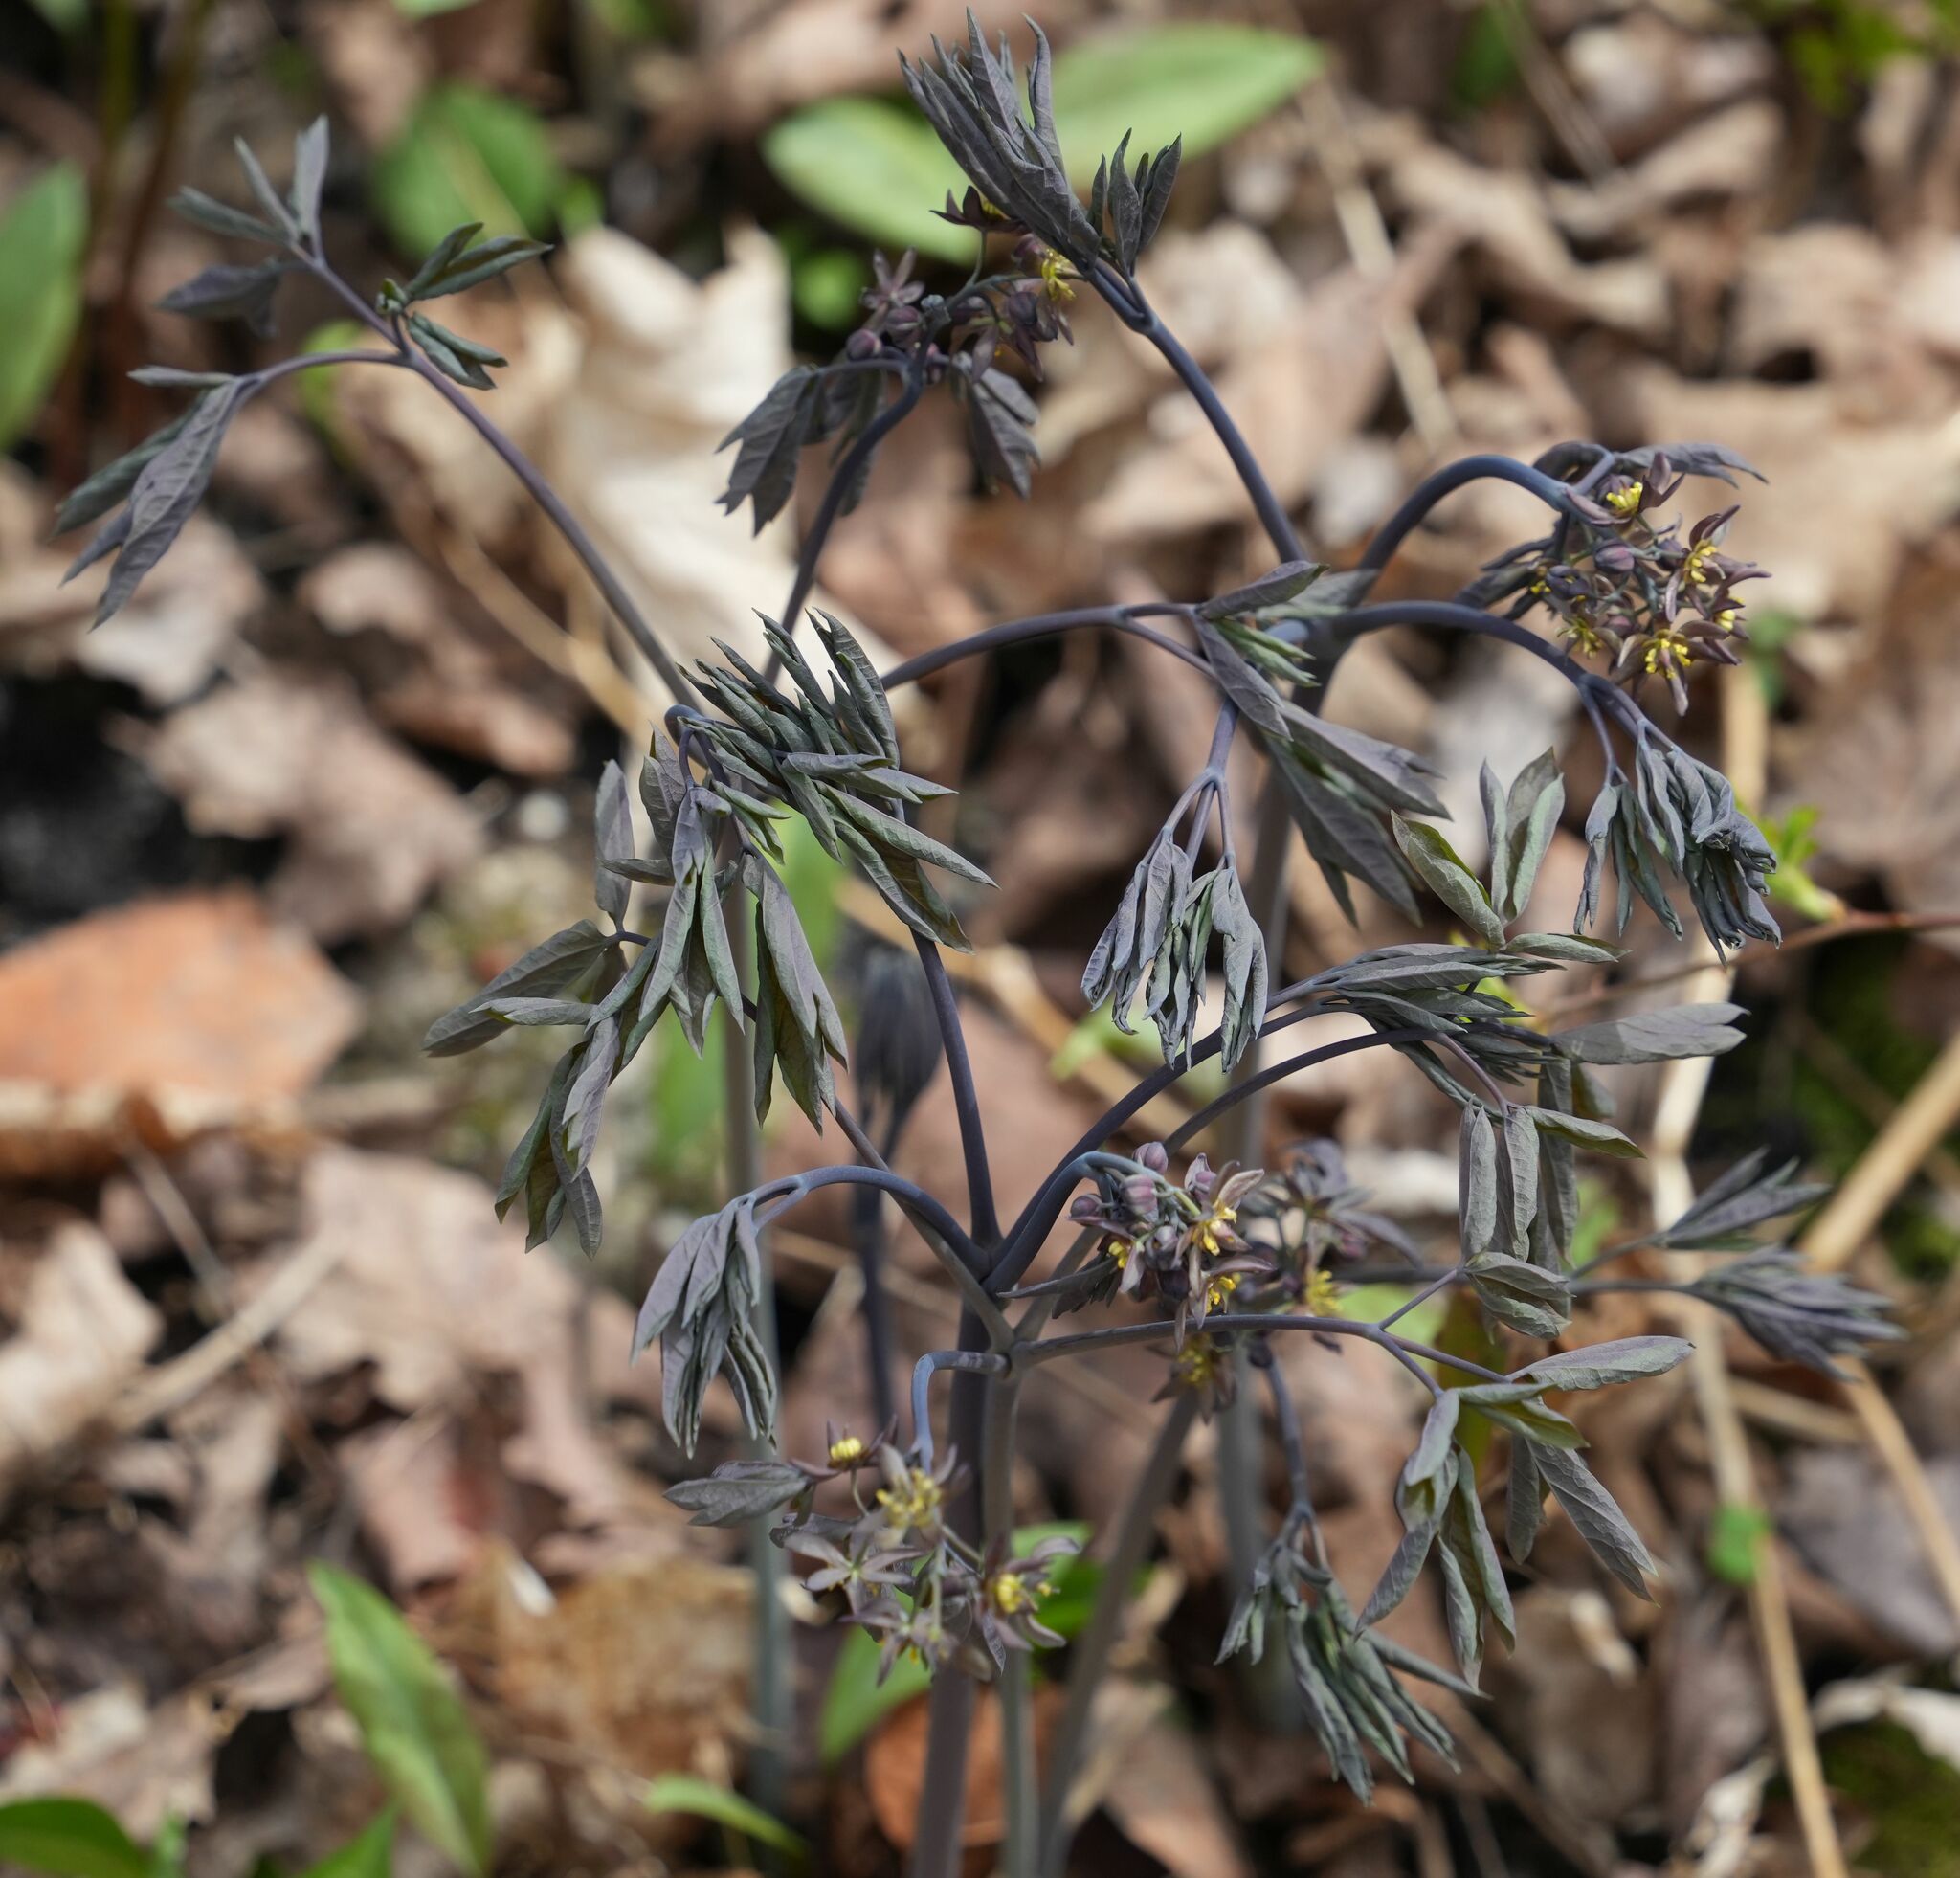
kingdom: Plantae
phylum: Tracheophyta
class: Magnoliopsida
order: Ranunculales
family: Berberidaceae
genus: Caulophyllum
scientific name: Caulophyllum giganteum
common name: Blue cohosh
